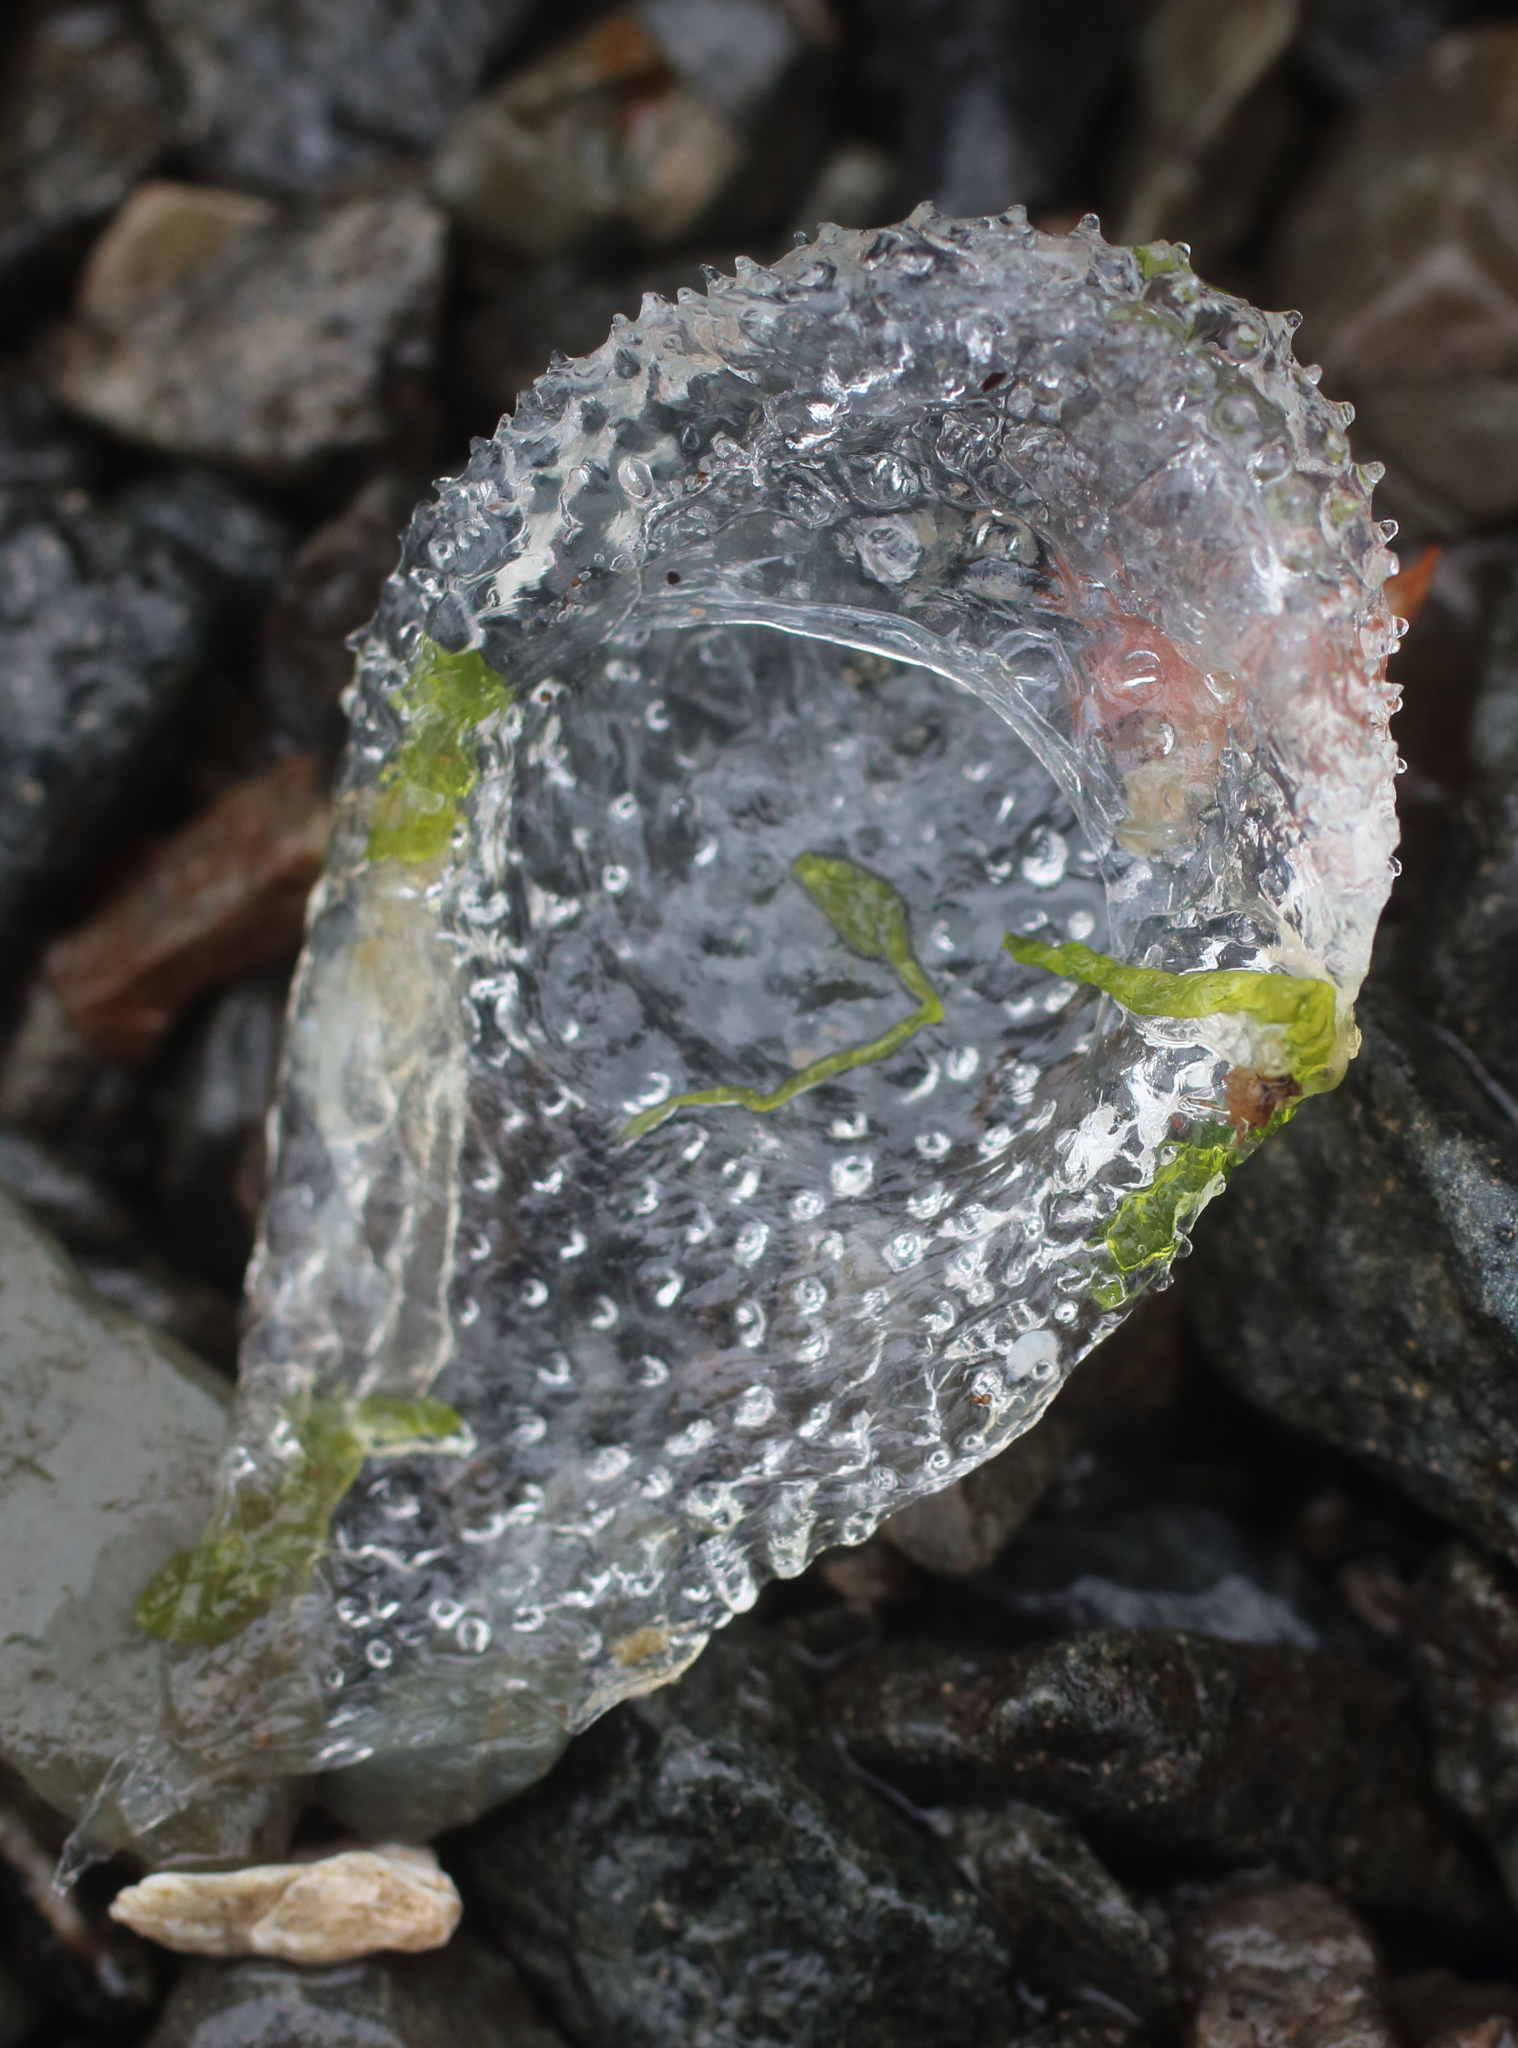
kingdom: Animalia
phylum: Mollusca
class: Gastropoda
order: Pteropoda
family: Cymbuliidae
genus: Corolla
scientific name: Corolla spectabilis
